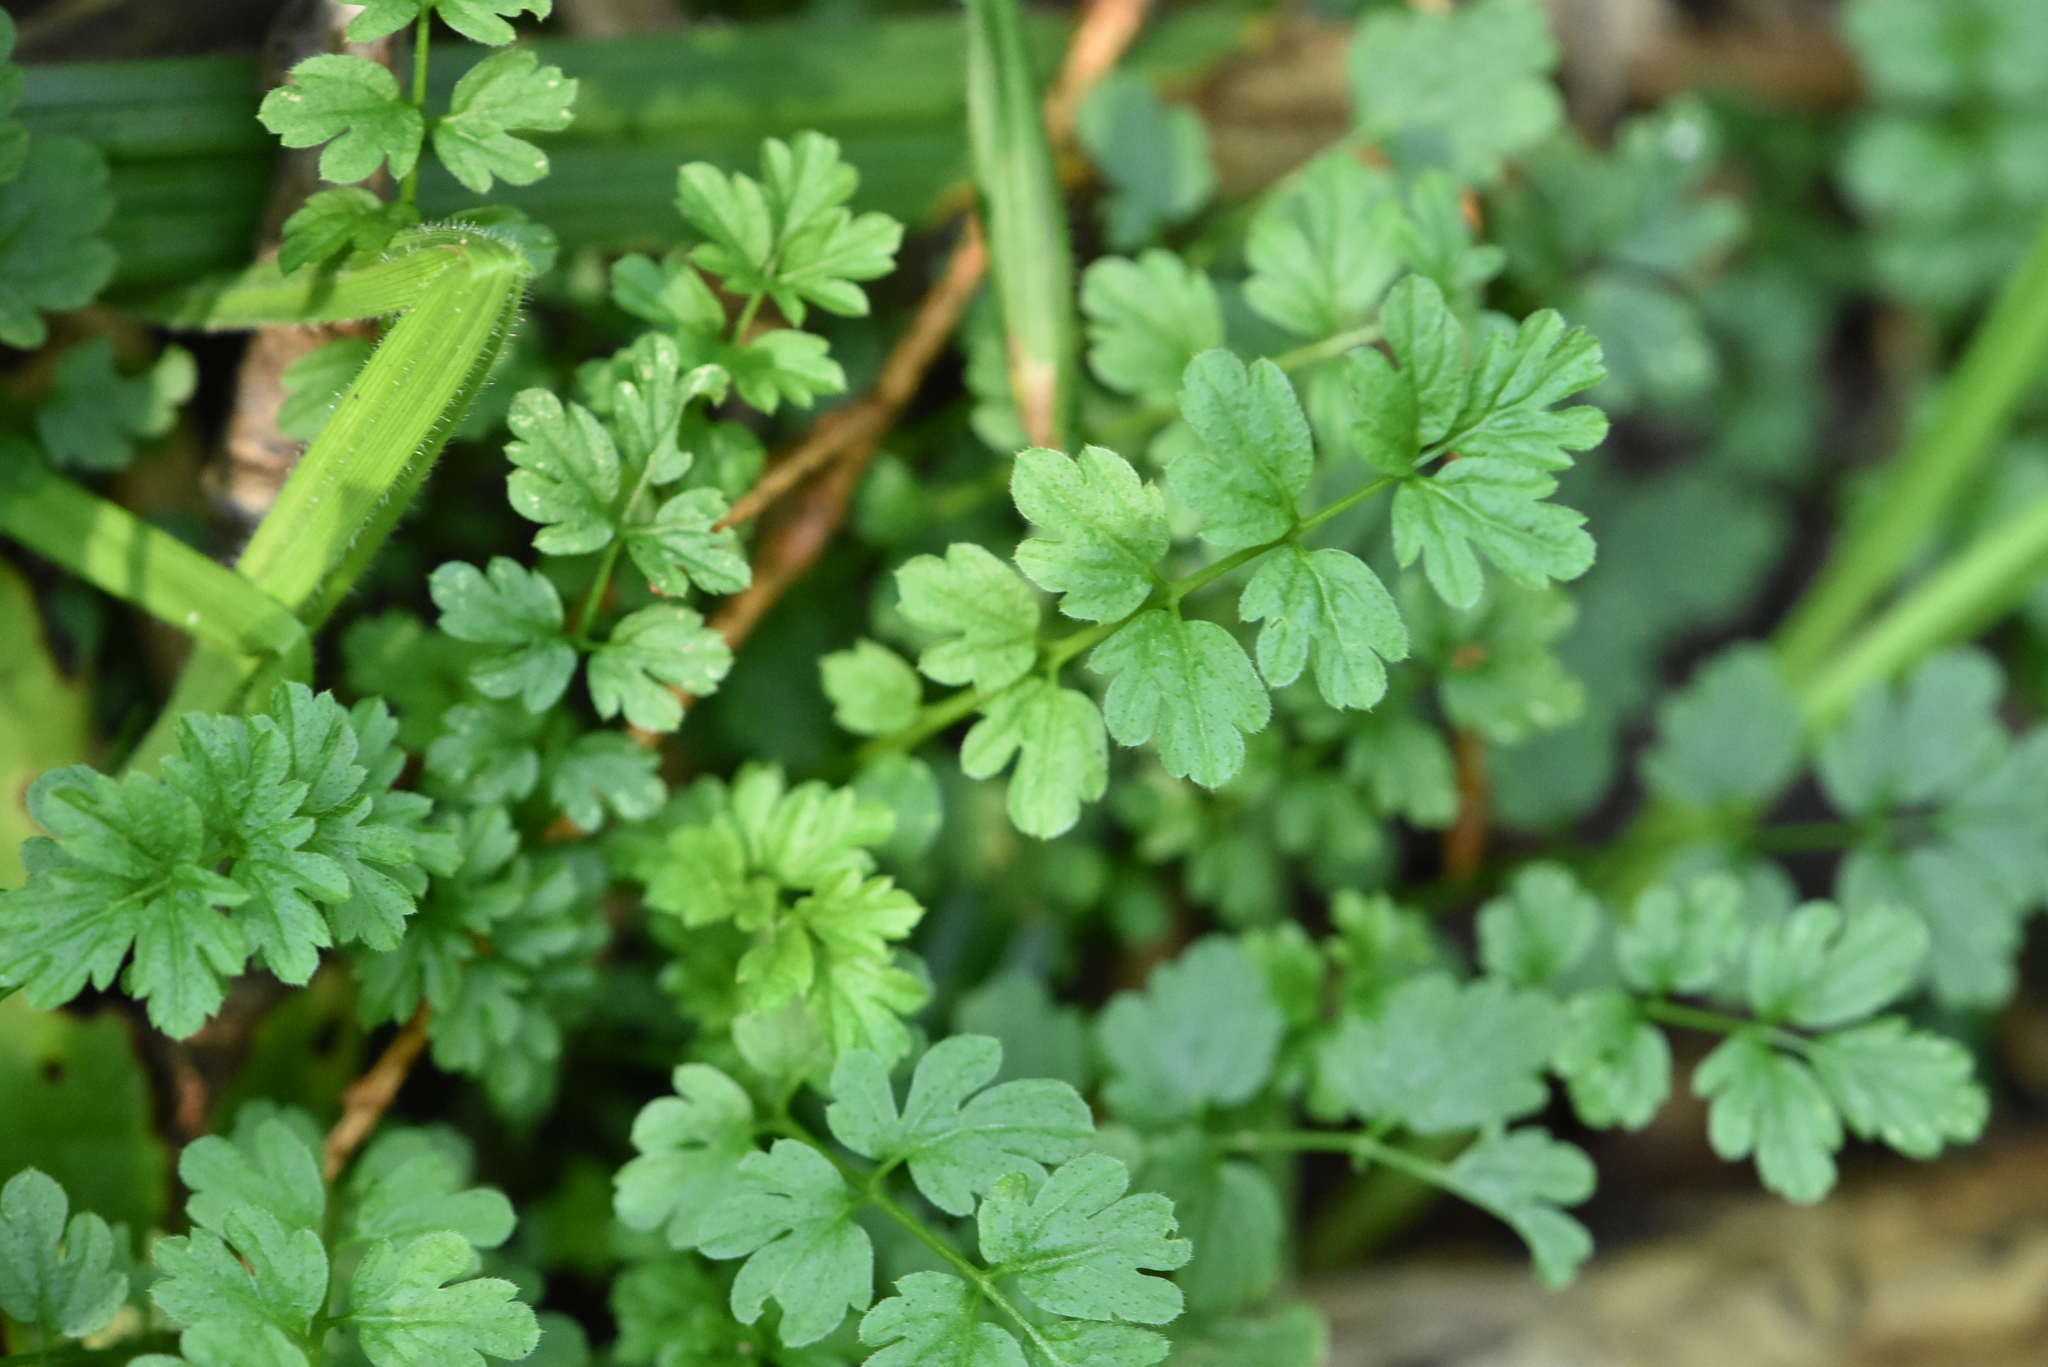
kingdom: Plantae
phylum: Tracheophyta
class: Magnoliopsida
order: Brassicales
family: Brassicaceae
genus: Cardamine
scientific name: Cardamine impatiens
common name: Narrow-leaved bitter-cress
